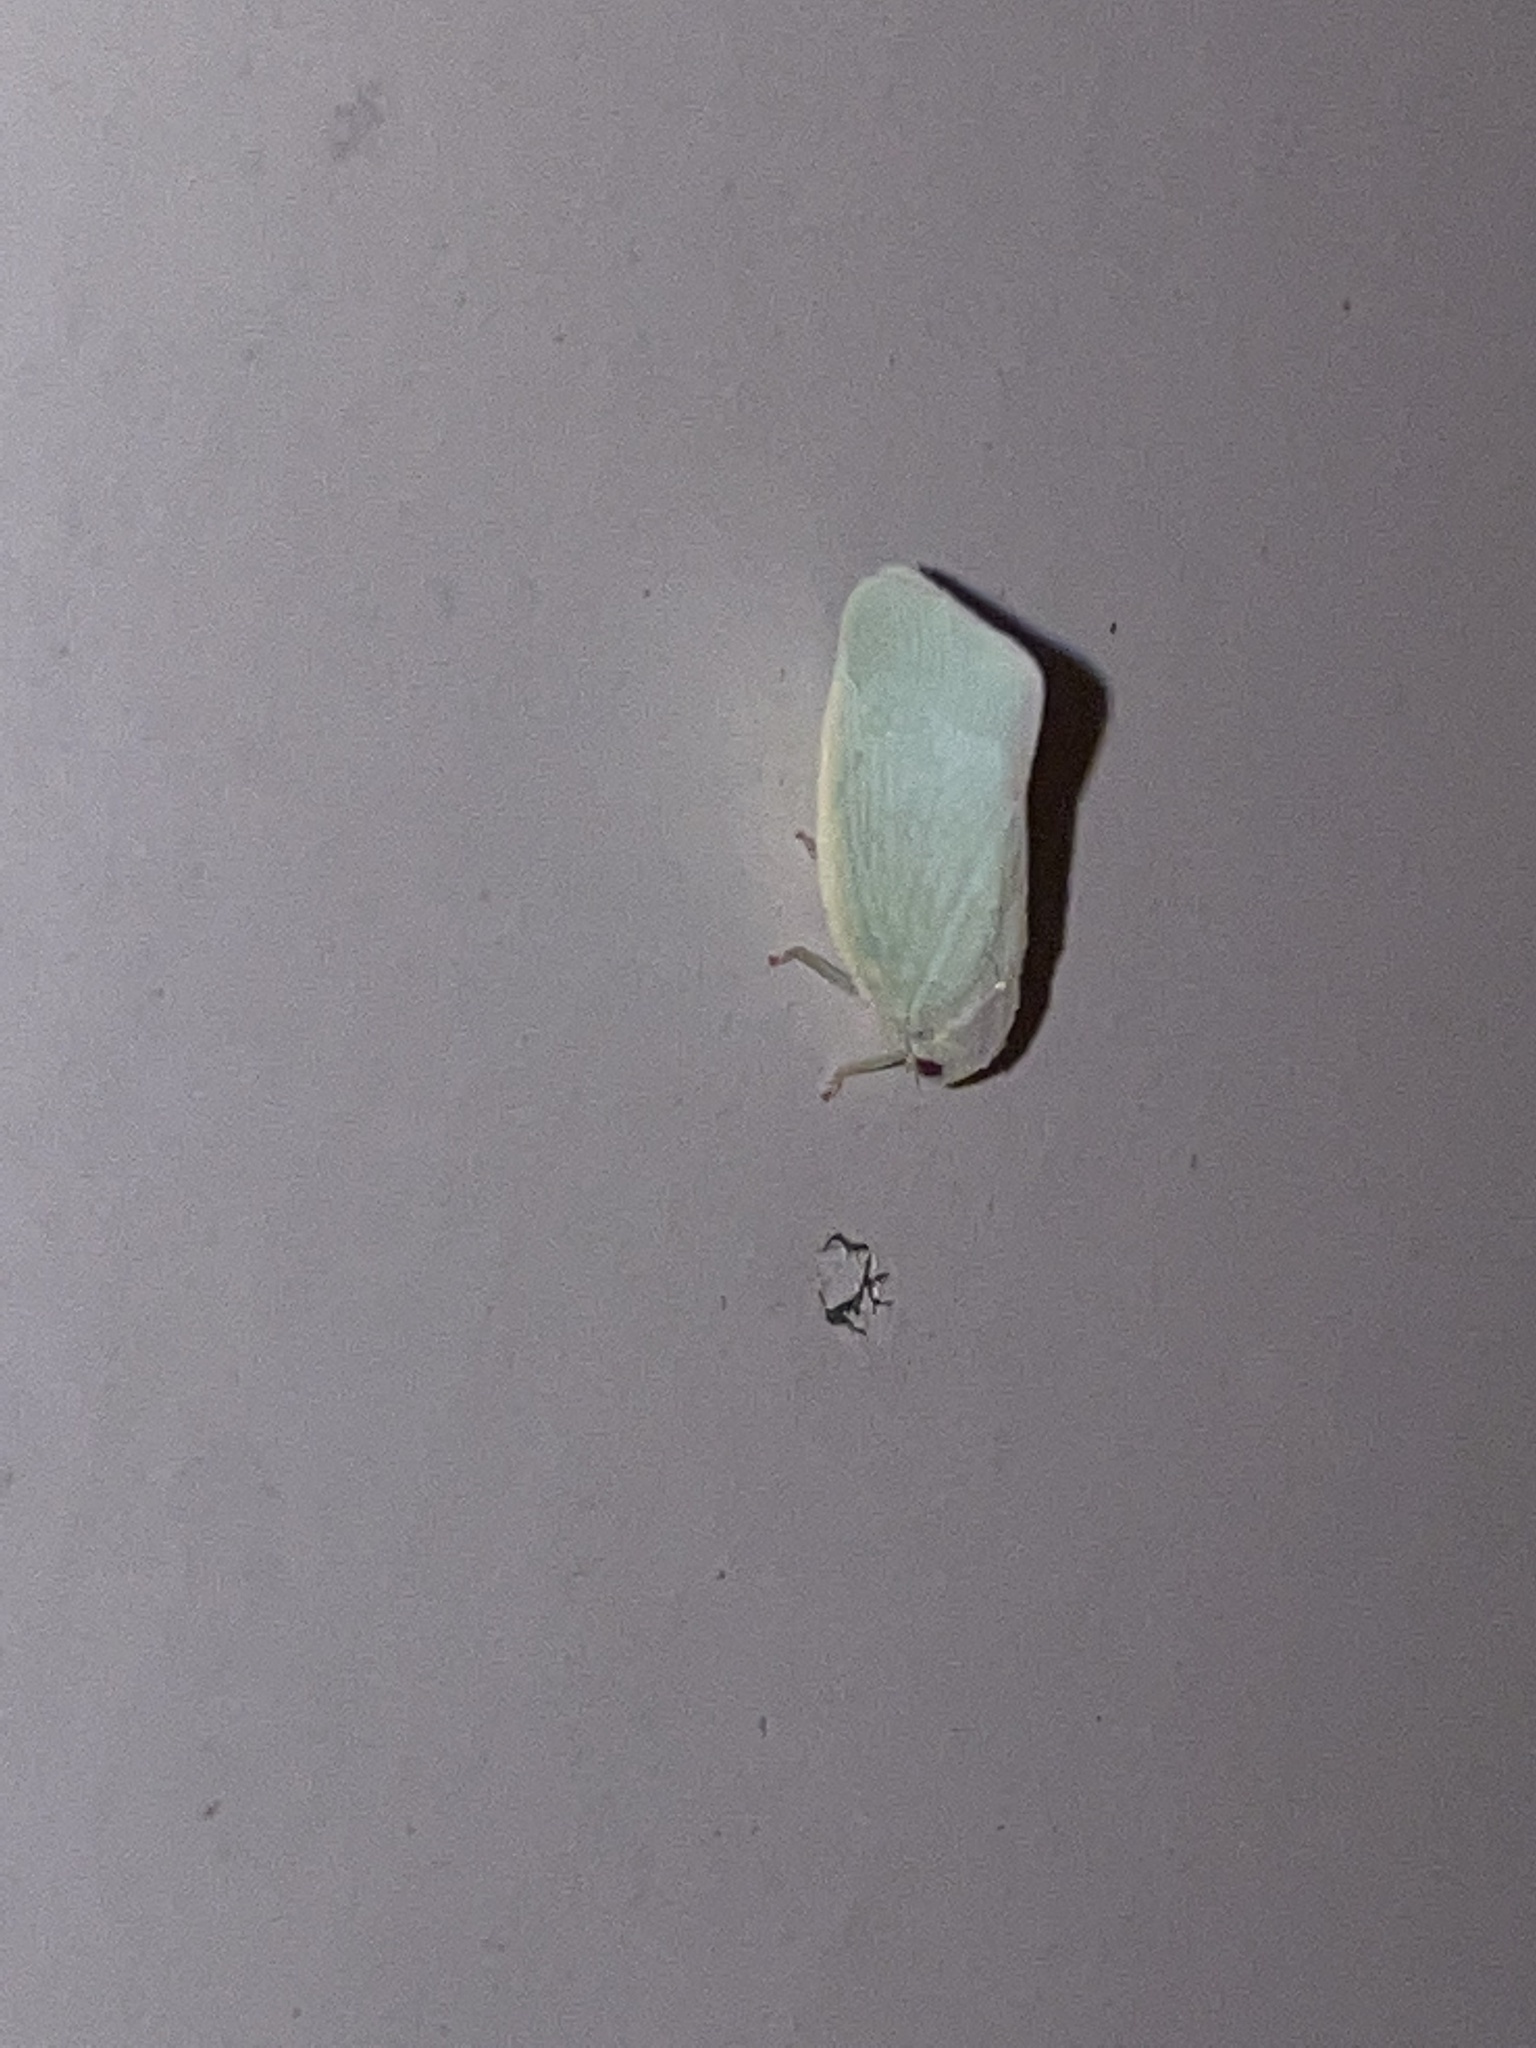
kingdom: Animalia
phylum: Arthropoda
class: Insecta
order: Hemiptera
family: Flatidae
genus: Flatormenis
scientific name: Flatormenis proxima
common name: Northern flatid planthopper
